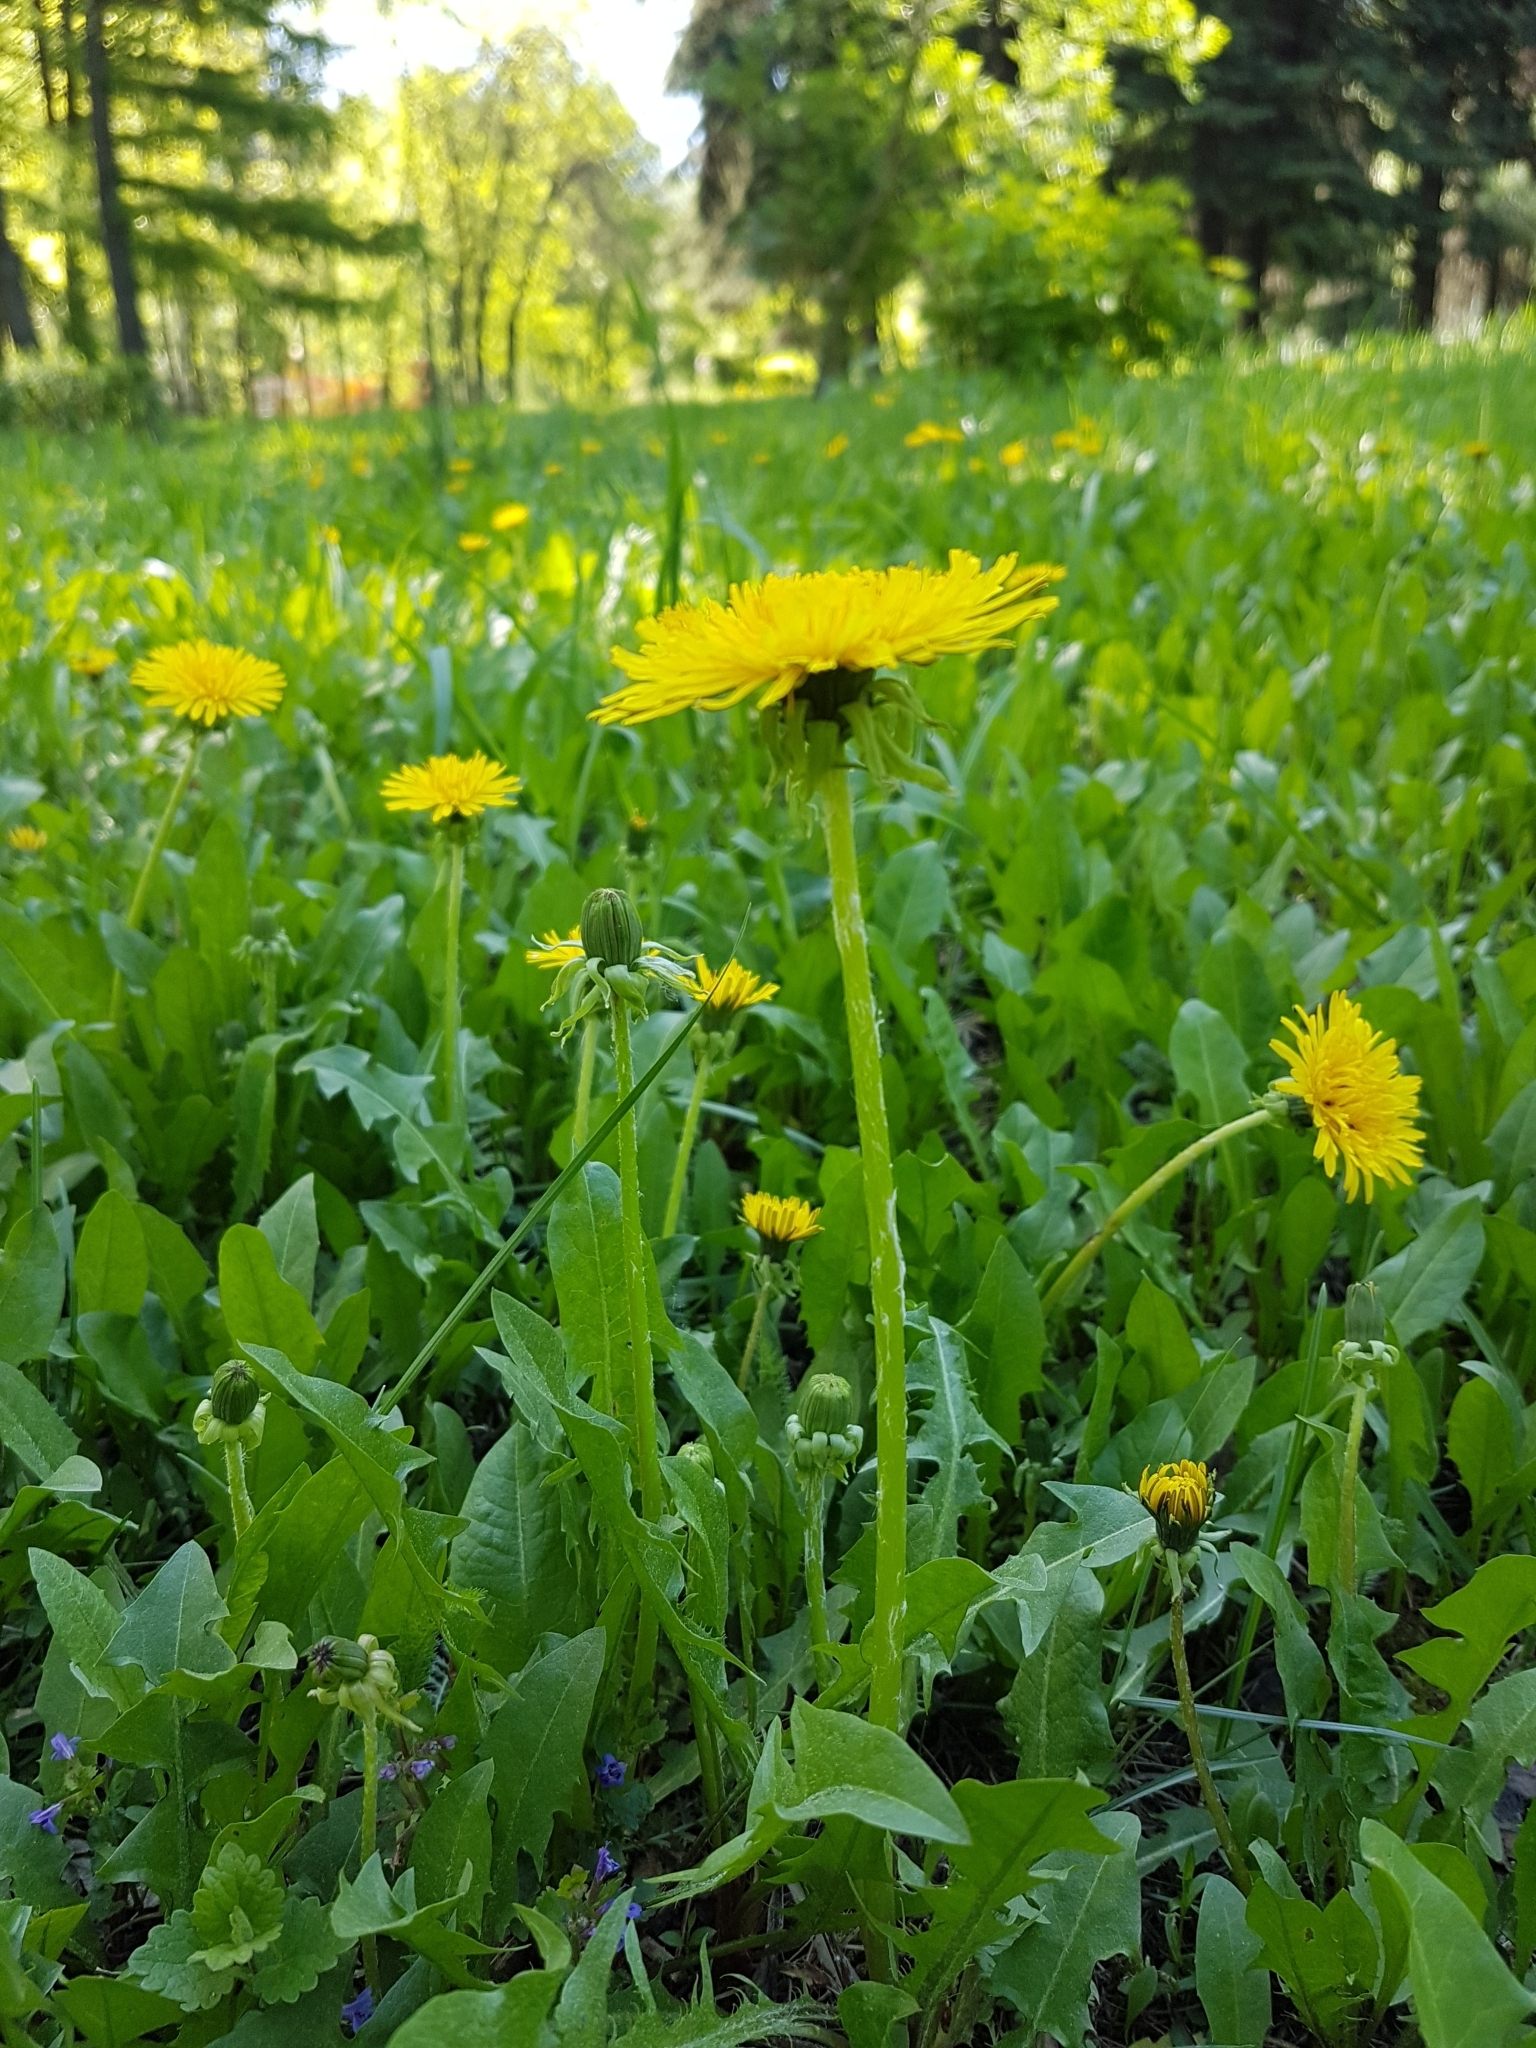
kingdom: Plantae
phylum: Tracheophyta
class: Magnoliopsida
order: Asterales
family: Asteraceae
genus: Taraxacum
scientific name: Taraxacum officinale
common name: Common dandelion
